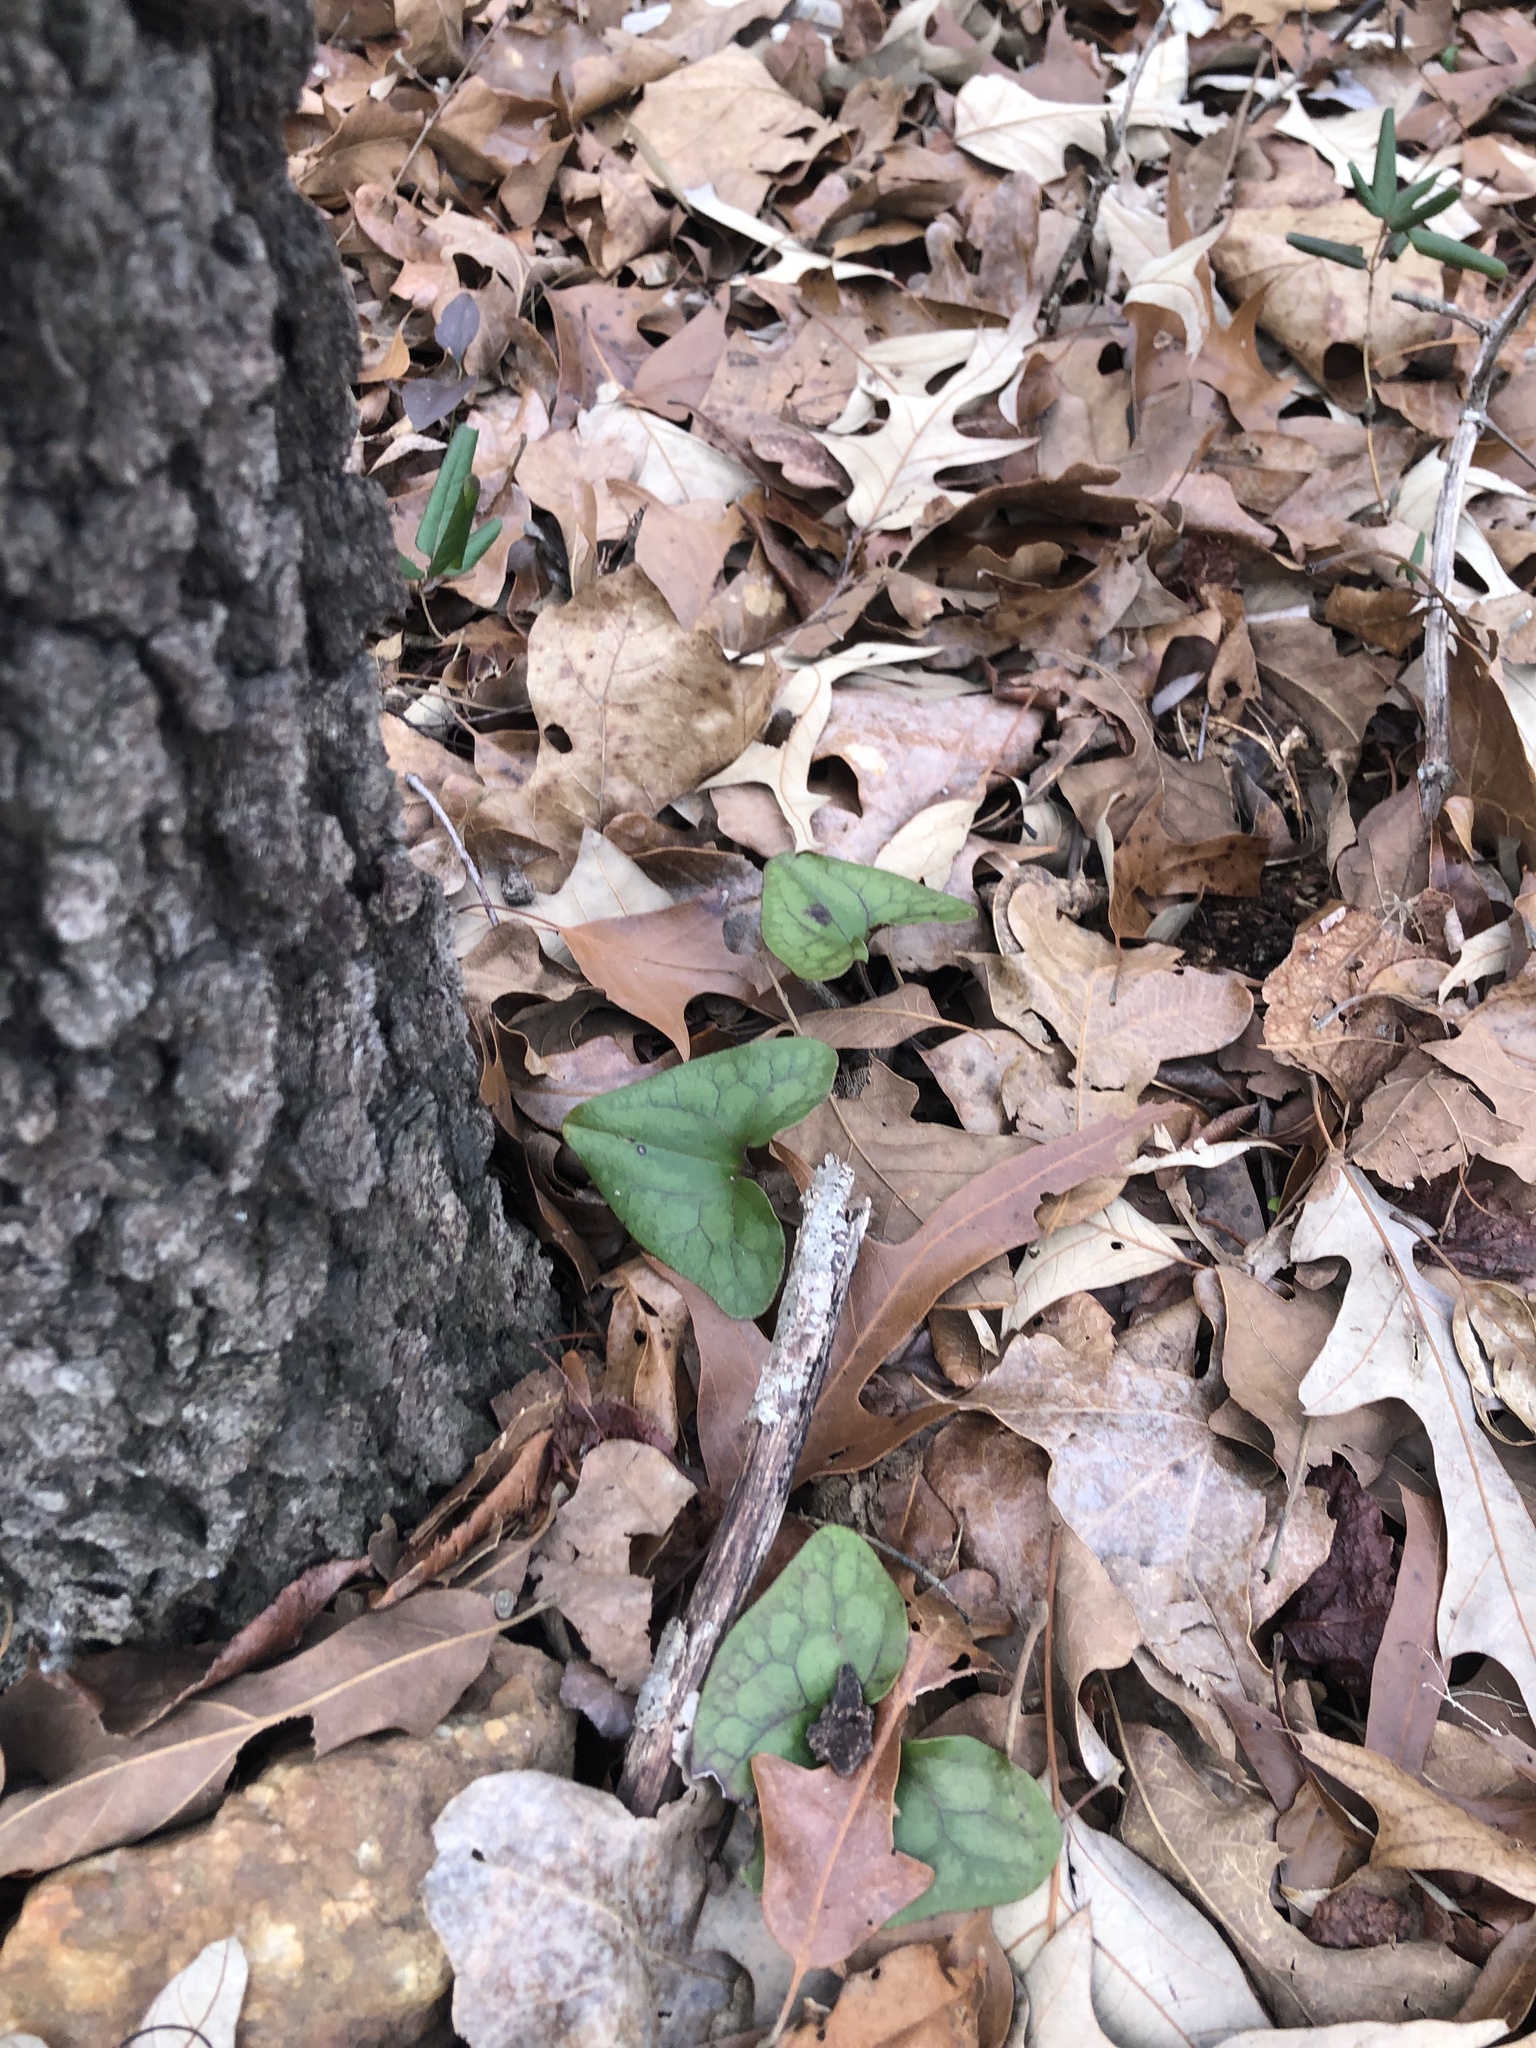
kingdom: Plantae
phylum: Tracheophyta
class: Magnoliopsida
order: Piperales
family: Aristolochiaceae
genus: Hexastylis
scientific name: Hexastylis arifolia
